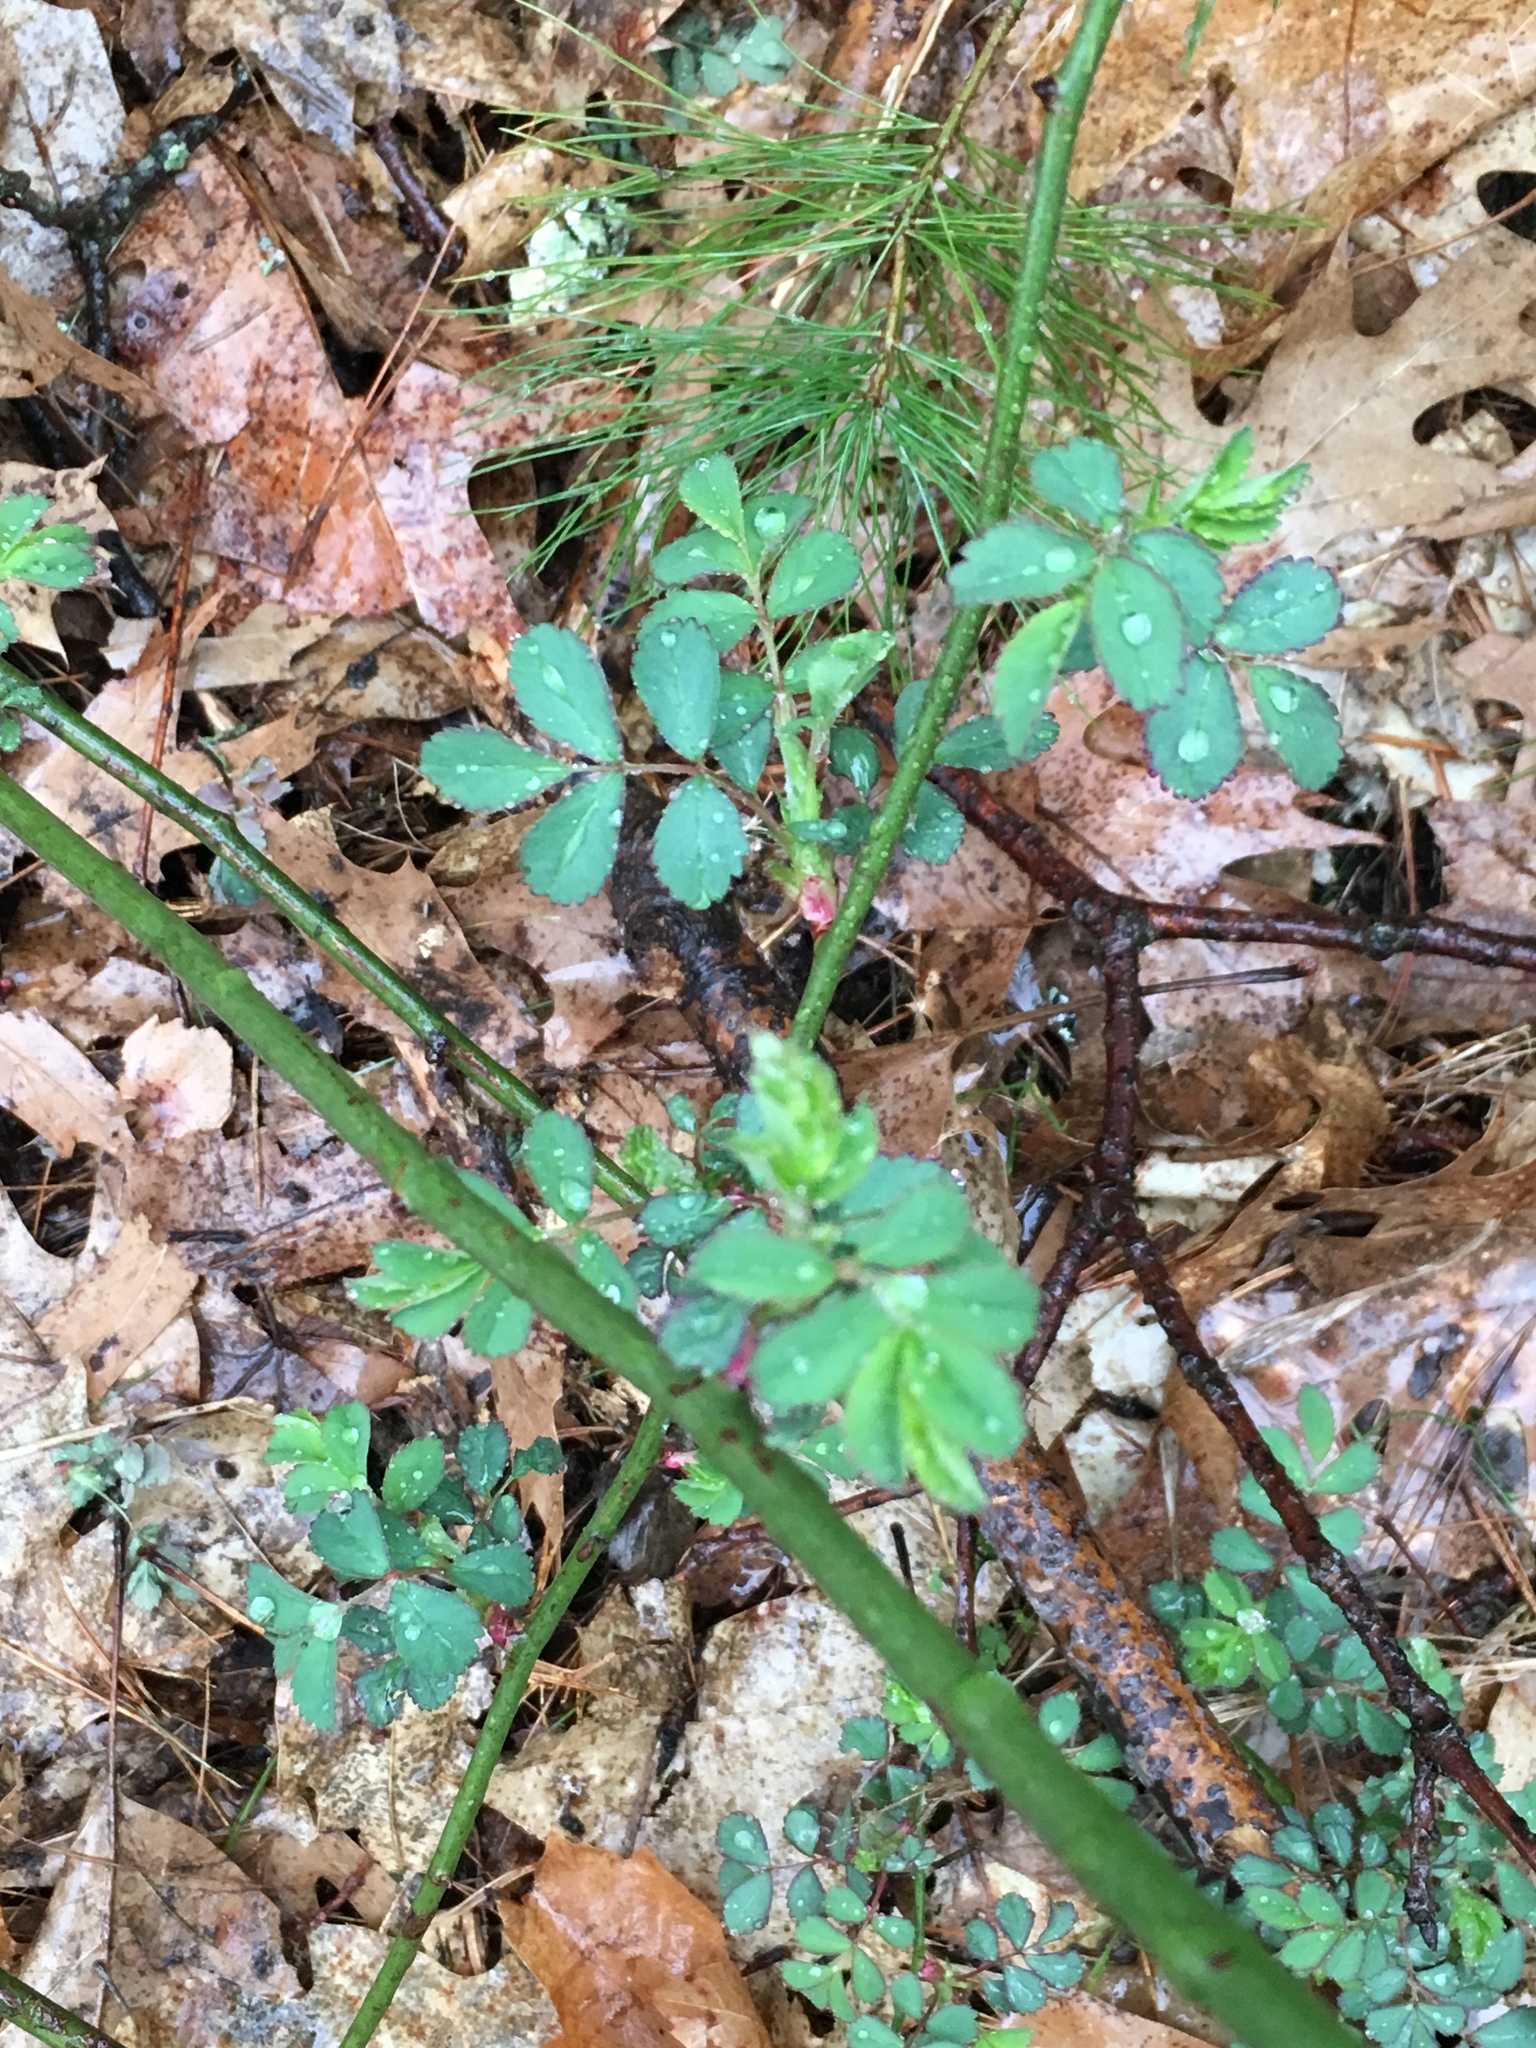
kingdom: Plantae
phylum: Tracheophyta
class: Magnoliopsida
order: Rosales
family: Rosaceae
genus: Rosa
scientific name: Rosa multiflora
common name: Multiflora rose
